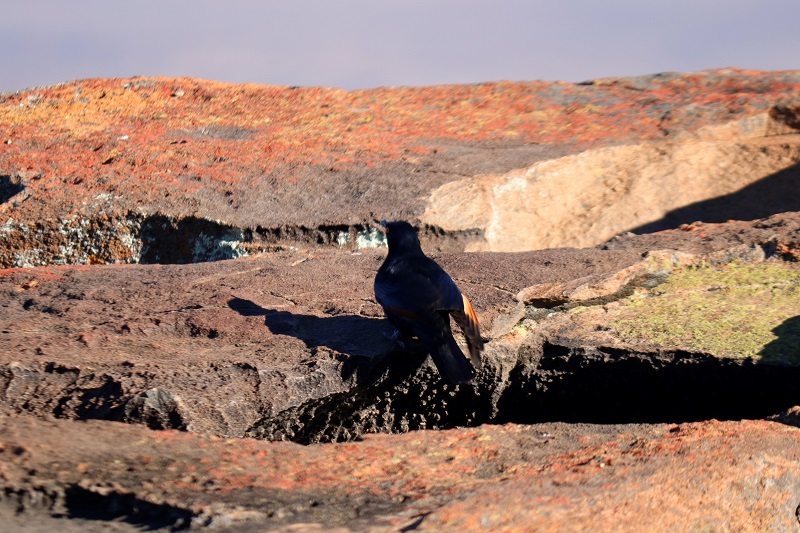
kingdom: Animalia
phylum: Chordata
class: Aves
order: Passeriformes
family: Sturnidae
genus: Onychognathus
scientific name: Onychognathus nabouroup
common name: Pale-winged starling
